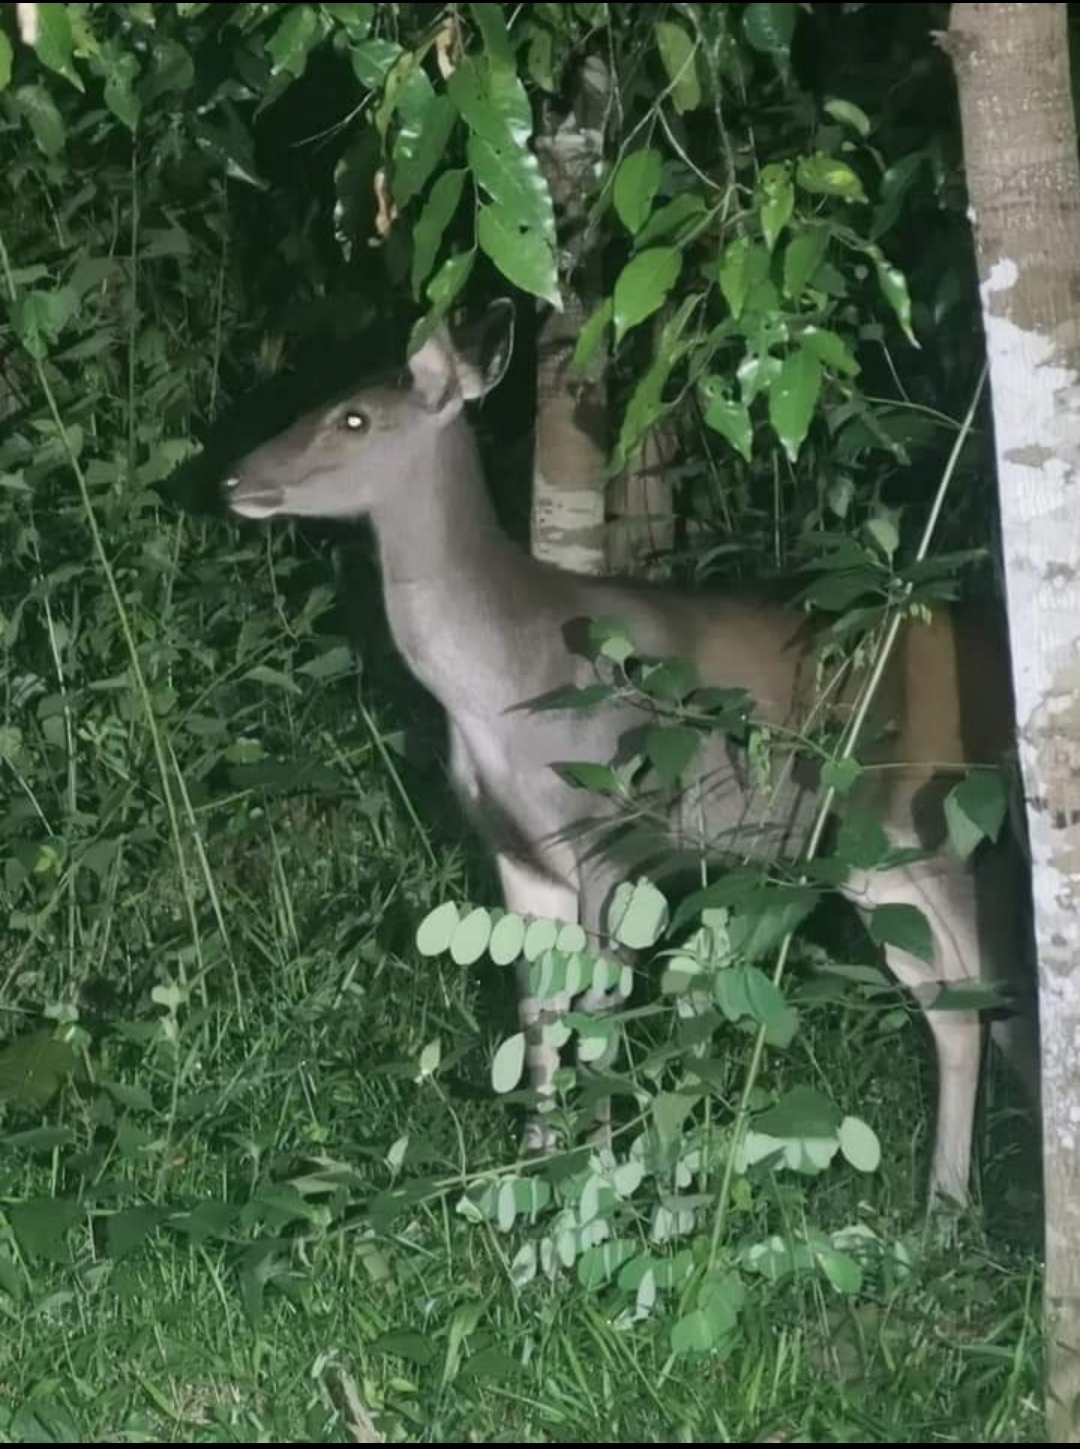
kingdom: Animalia
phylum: Chordata
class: Mammalia
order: Artiodactyla
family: Cervidae
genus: Rusa
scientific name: Rusa unicolor
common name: Sambar
